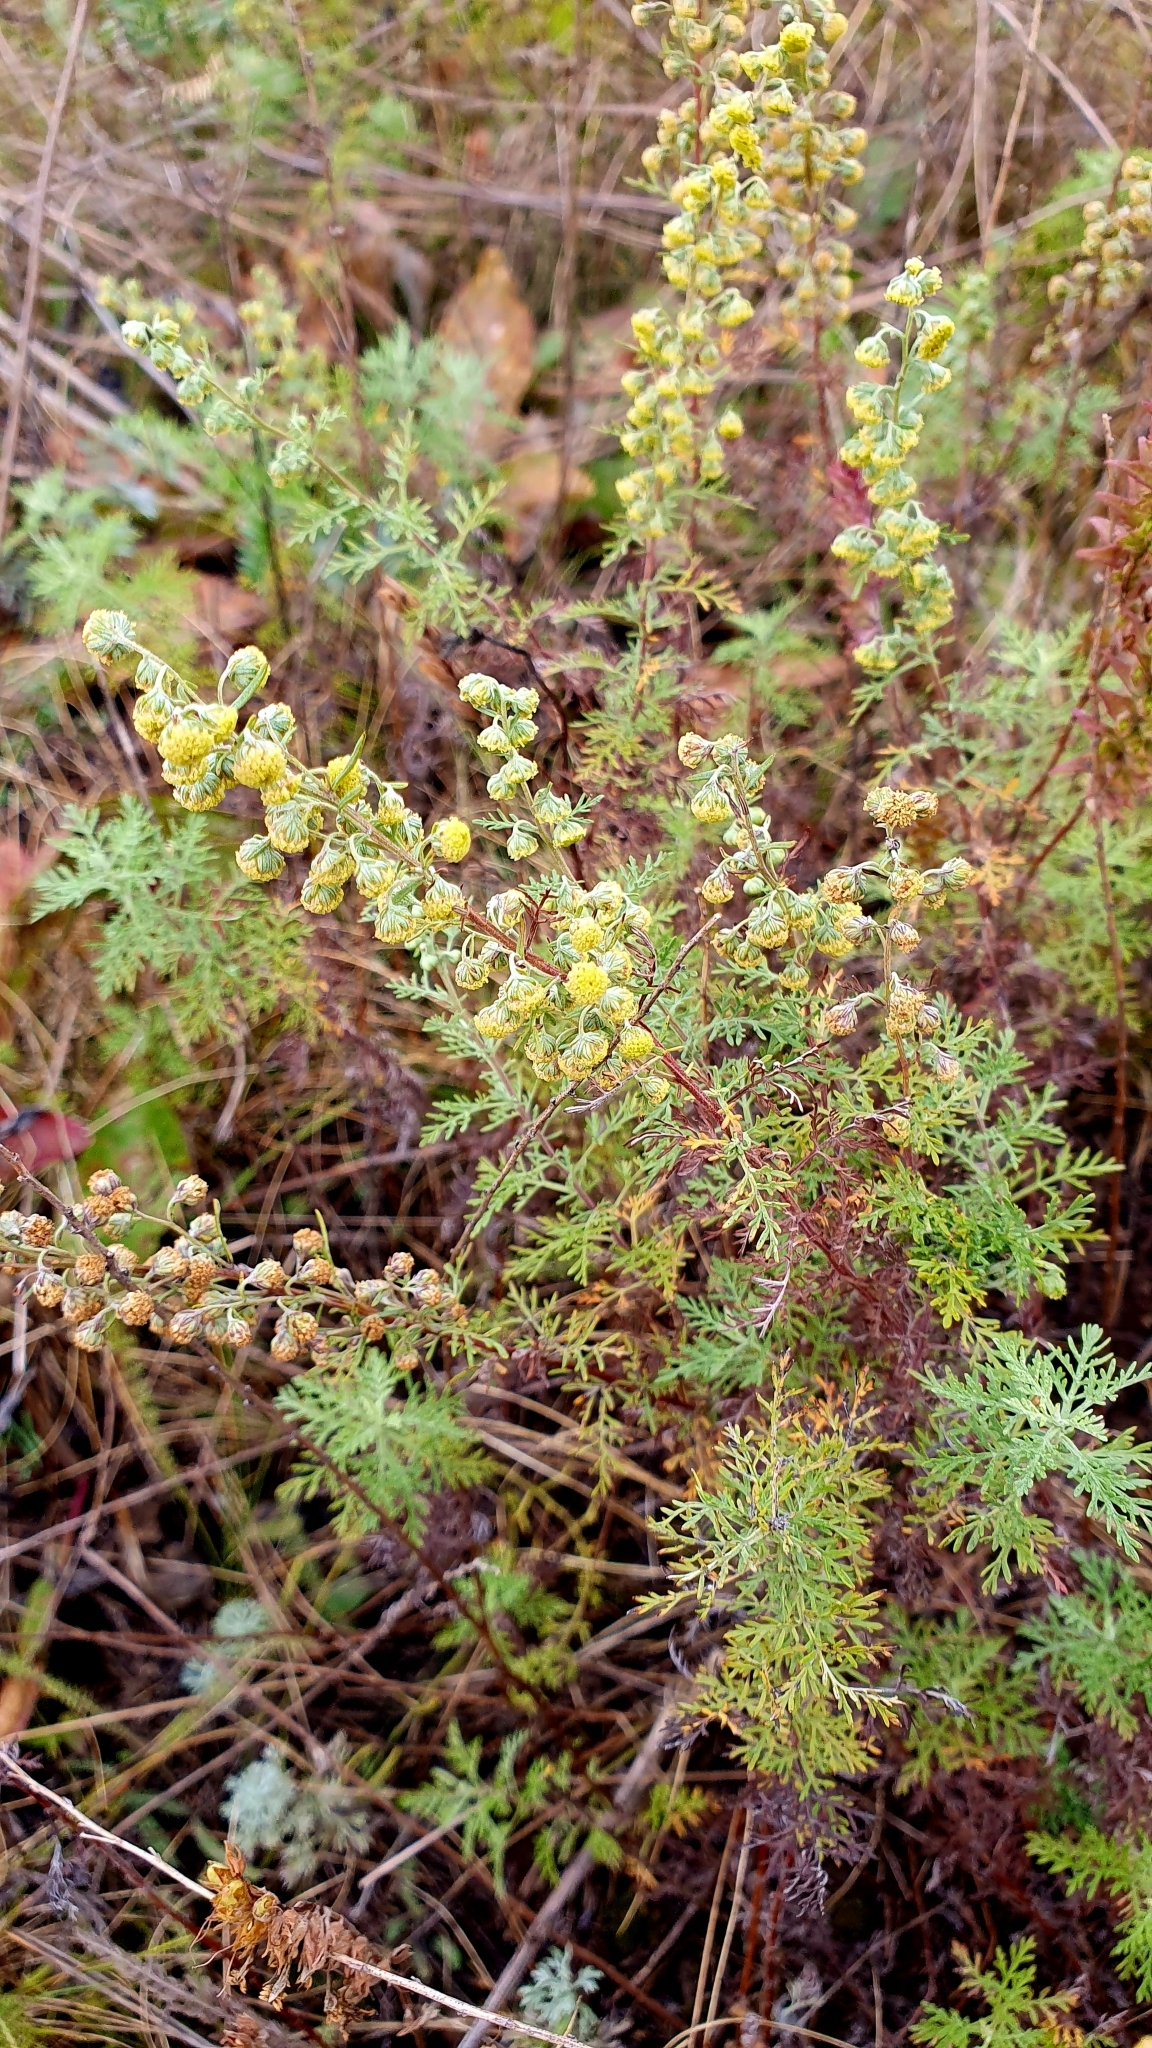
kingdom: Plantae
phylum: Tracheophyta
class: Magnoliopsida
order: Asterales
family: Asteraceae
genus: Artemisia
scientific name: Artemisia pontica
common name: Roman wormwood
